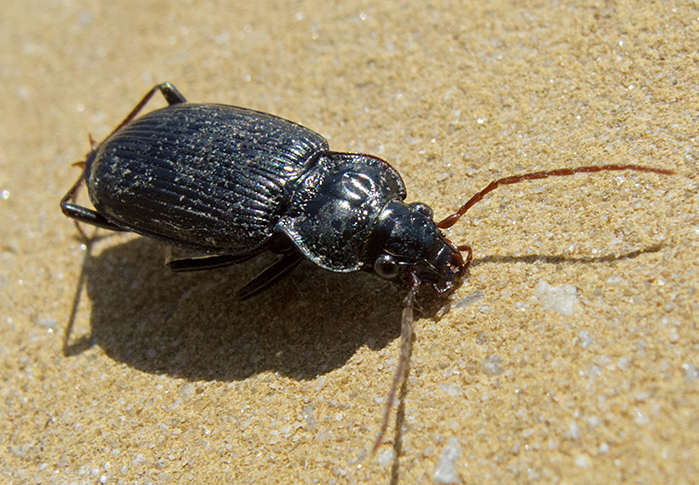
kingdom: Animalia
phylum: Arthropoda
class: Insecta
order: Coleoptera
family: Carabidae
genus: Nebria
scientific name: Nebria brevicollis
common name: Short-necked gazelle beetle
